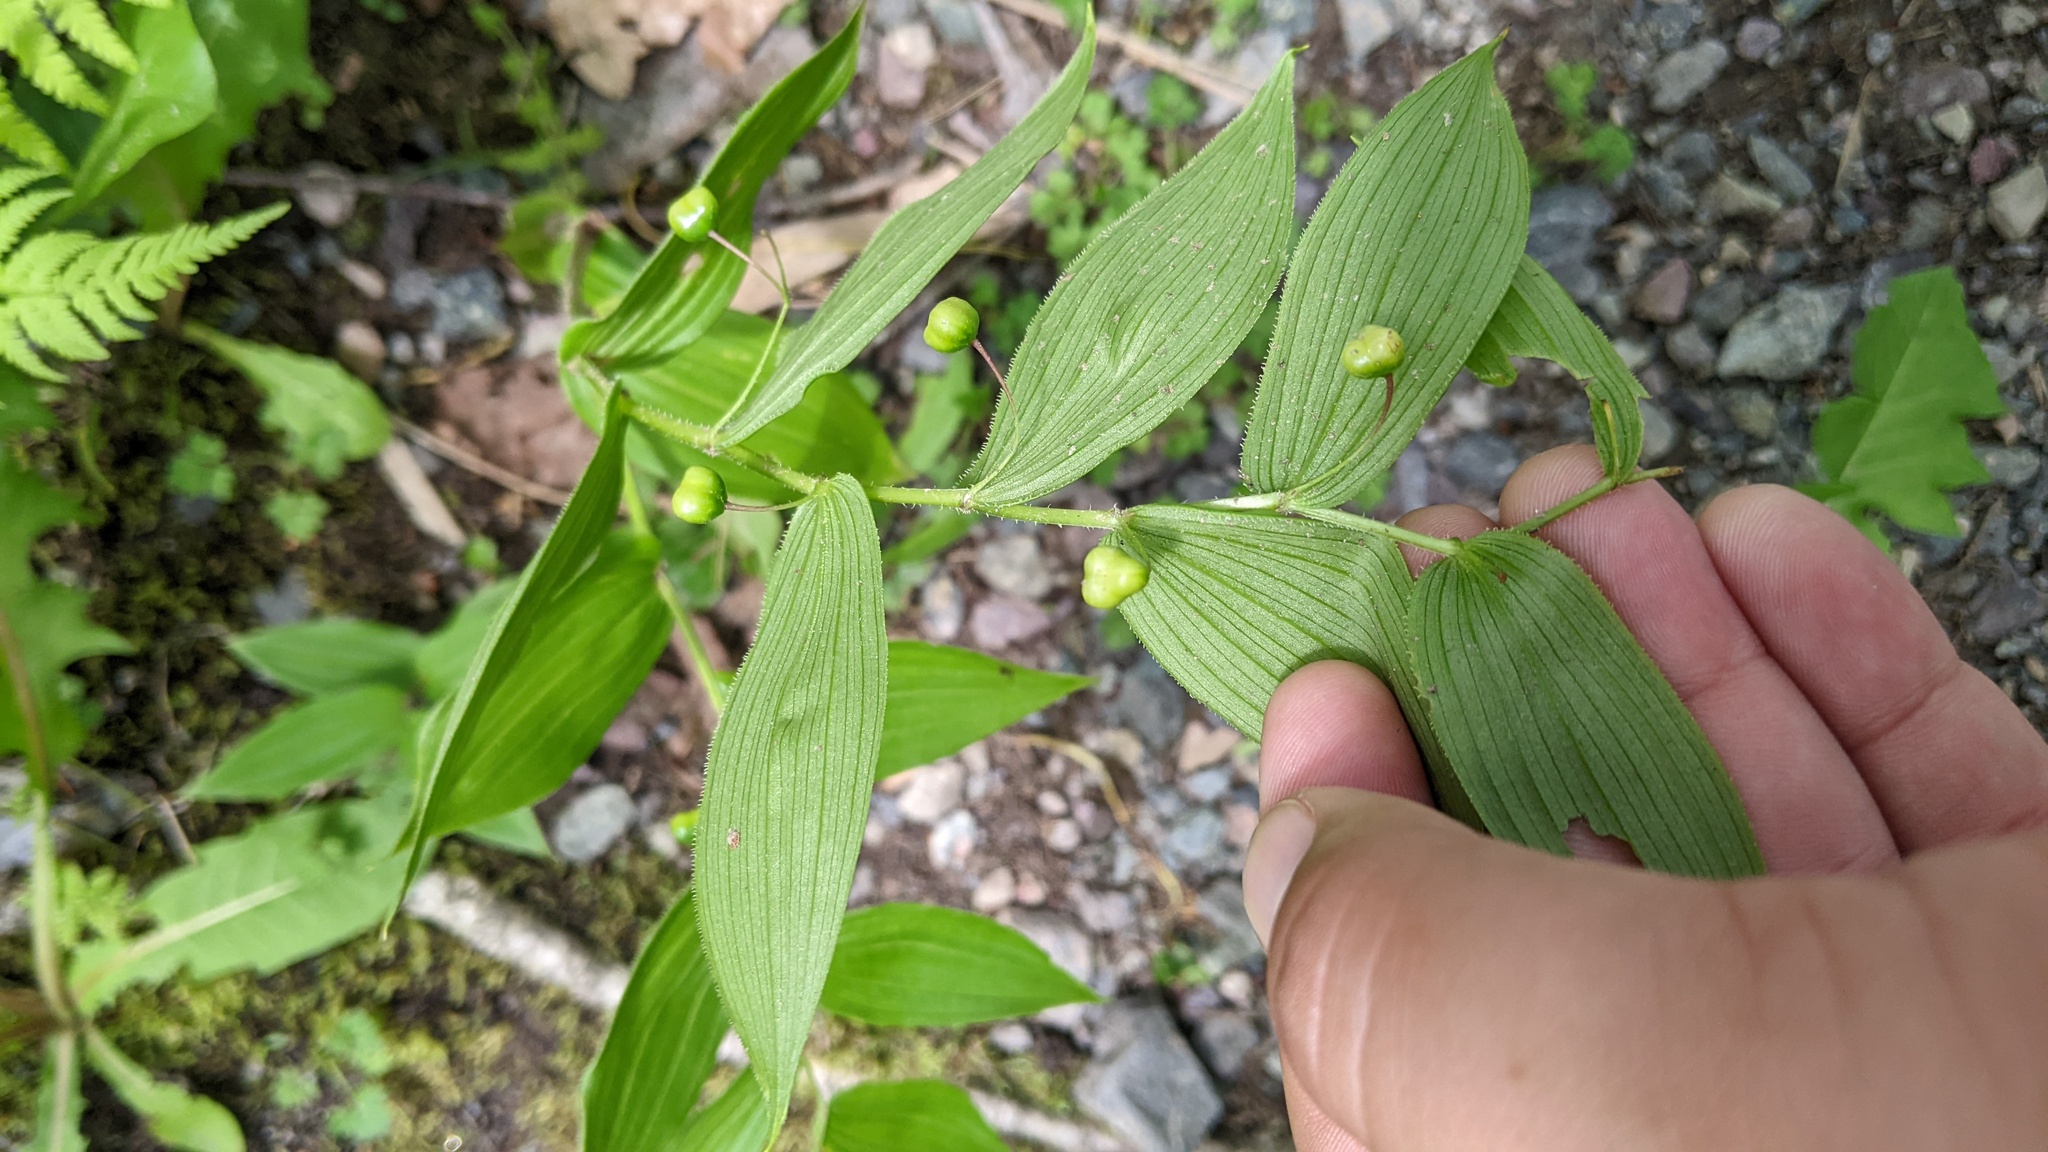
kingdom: Plantae
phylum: Tracheophyta
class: Liliopsida
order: Liliales
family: Liliaceae
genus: Streptopus
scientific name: Streptopus lanceolatus
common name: Rose mandarin
